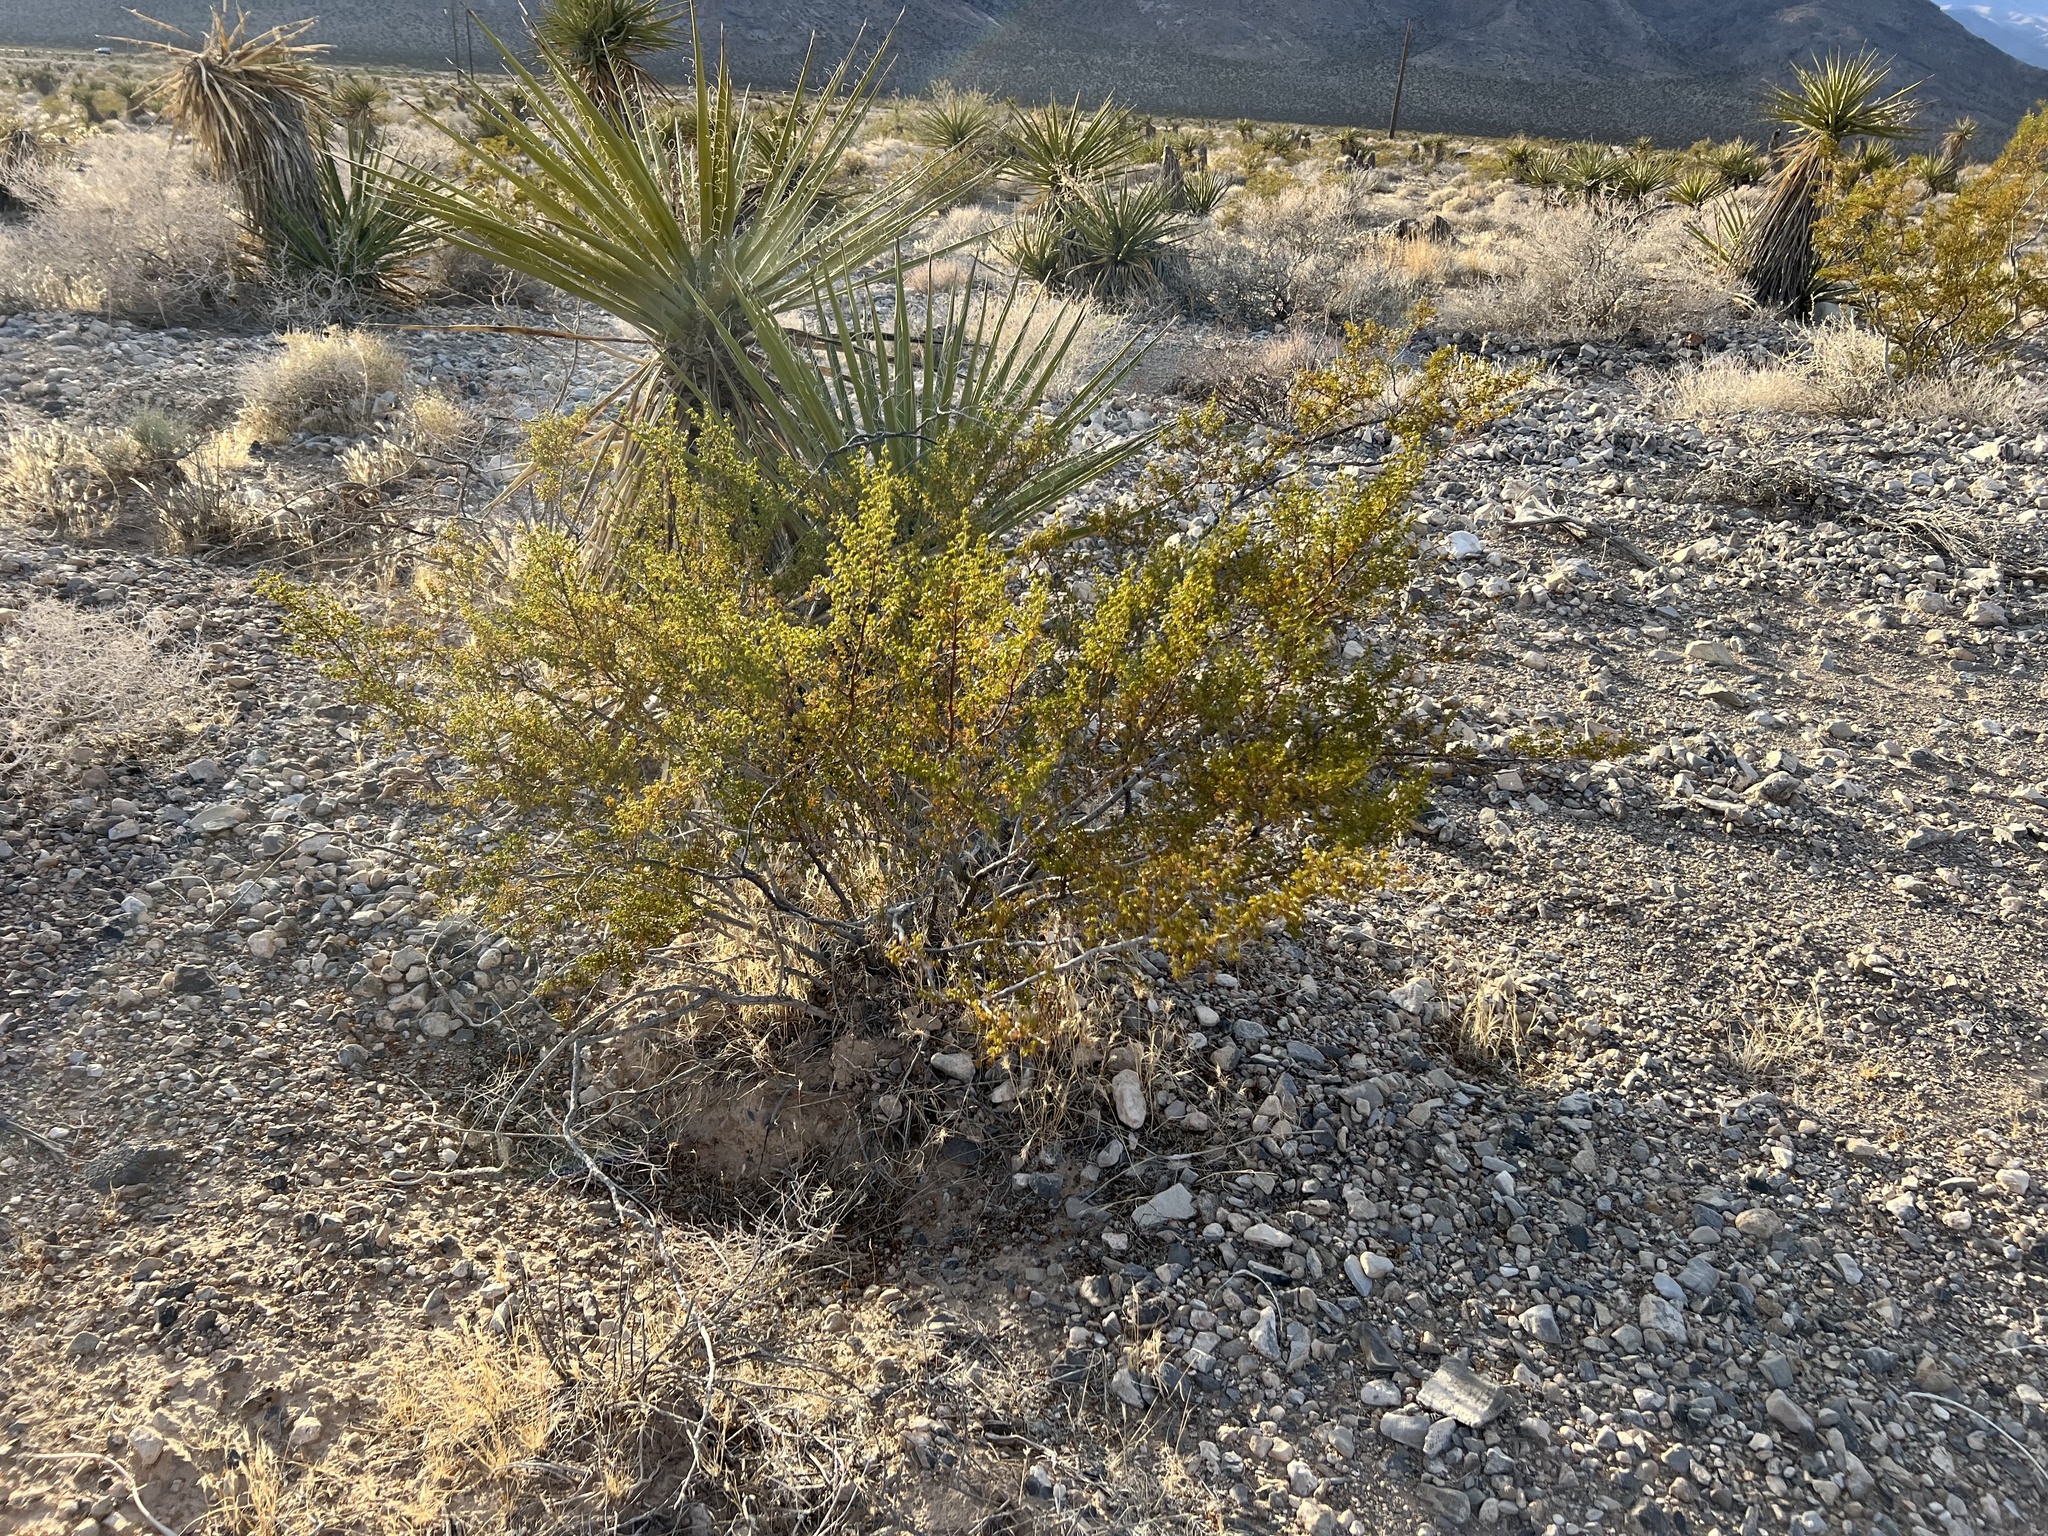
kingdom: Plantae
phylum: Tracheophyta
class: Magnoliopsida
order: Zygophyllales
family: Zygophyllaceae
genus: Larrea
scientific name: Larrea tridentata
